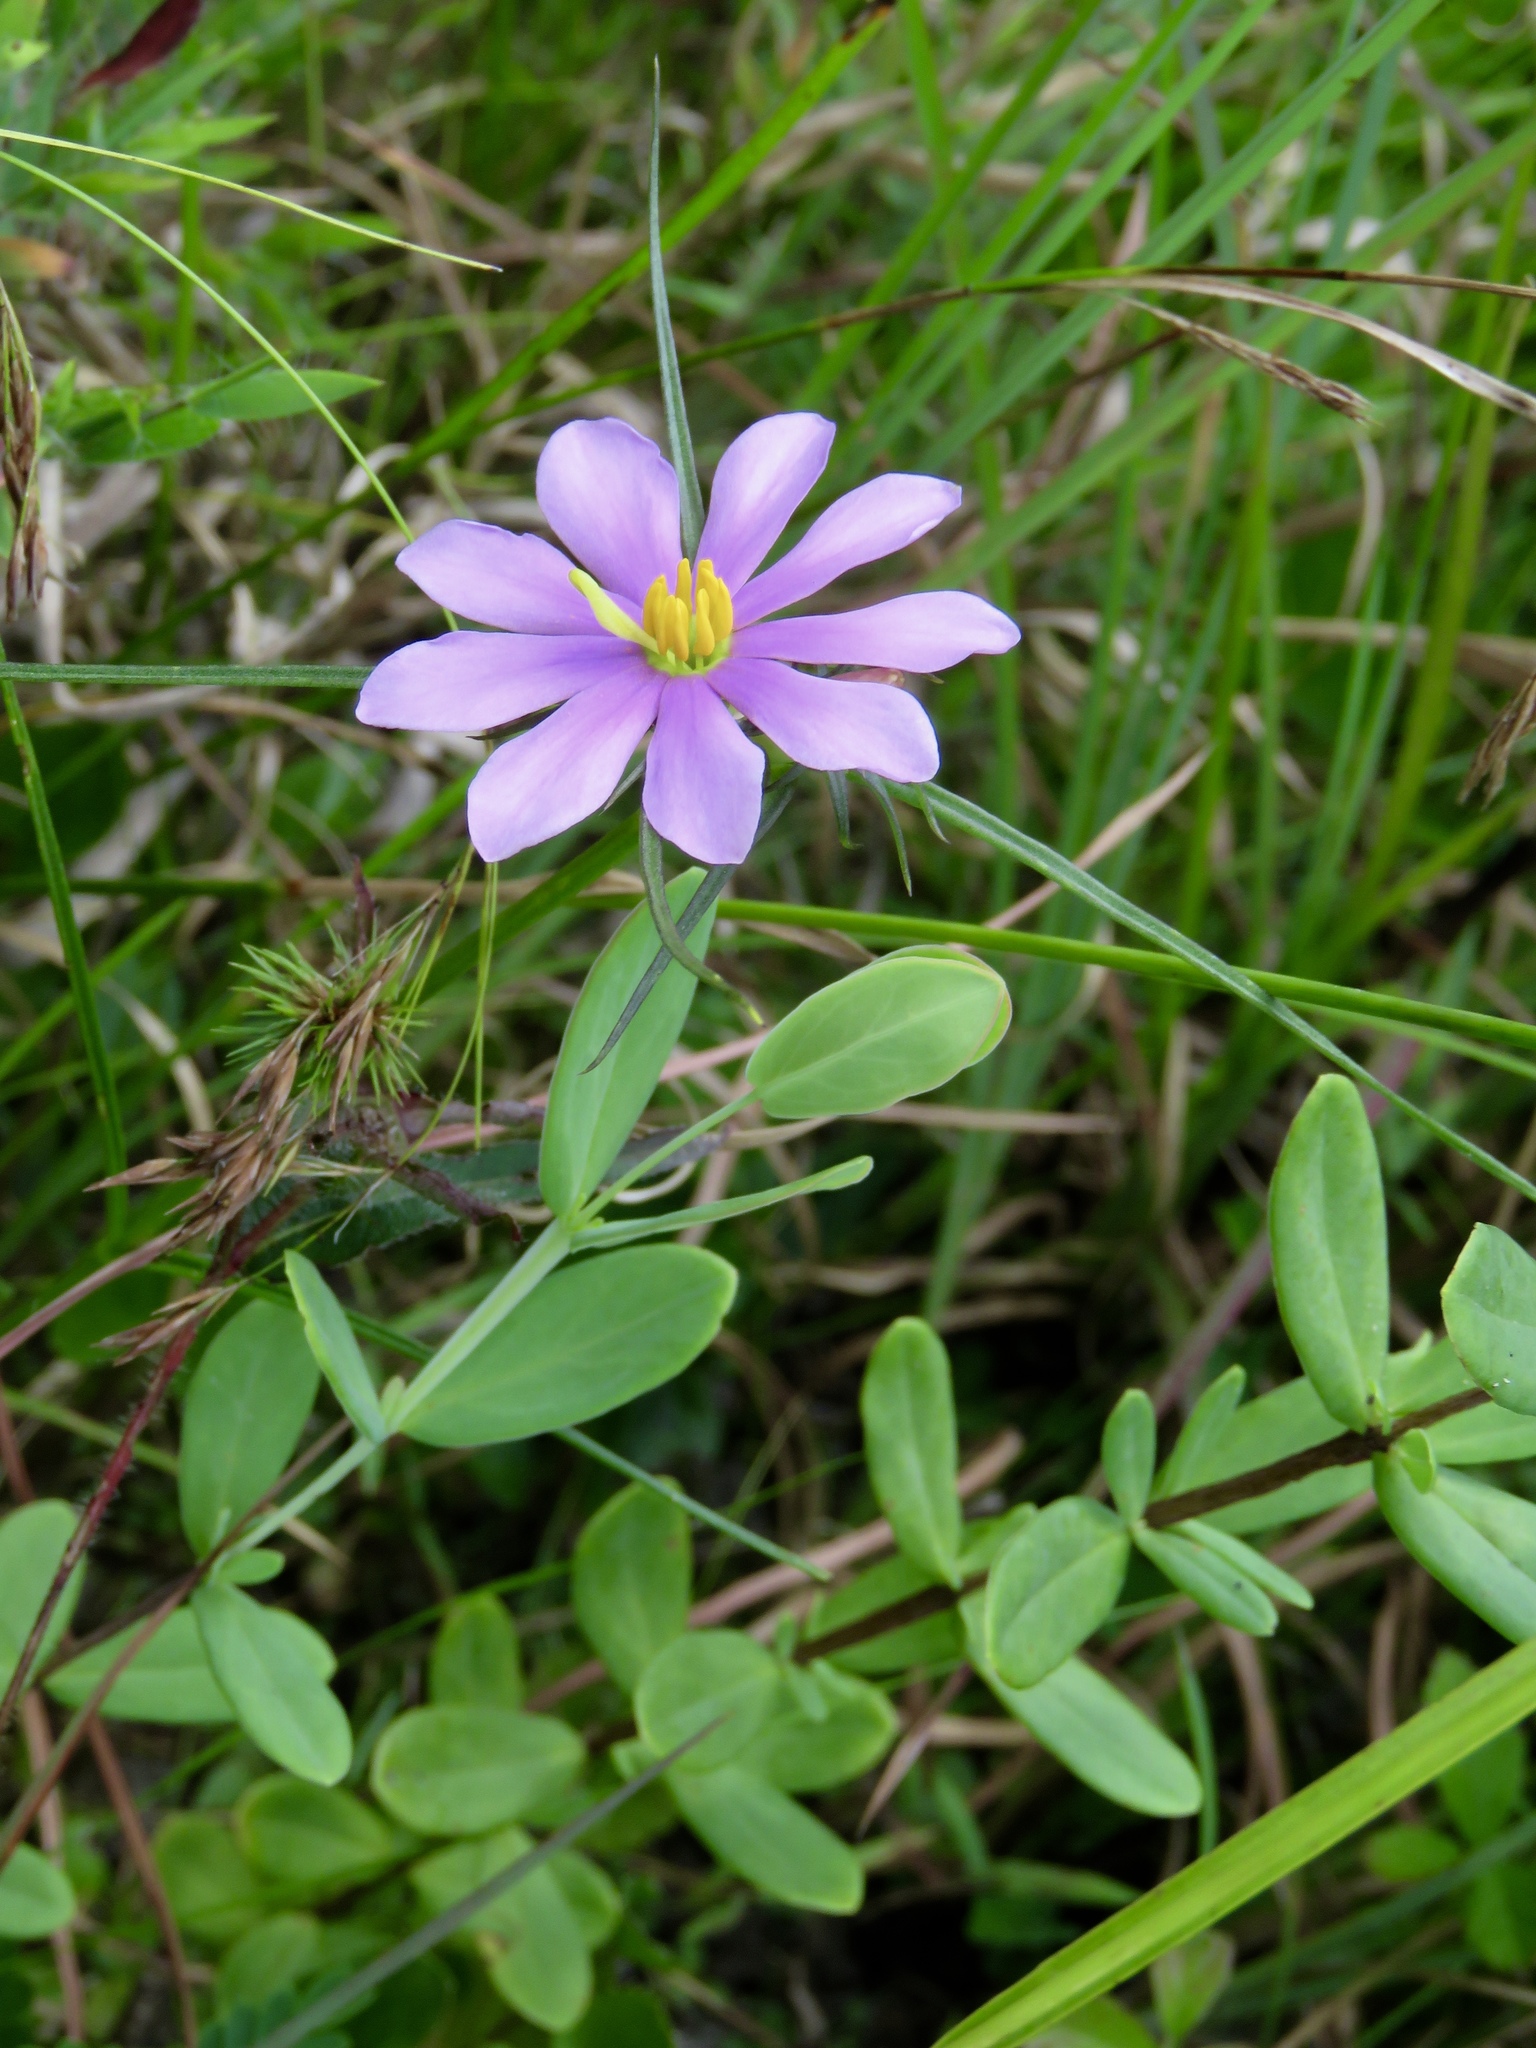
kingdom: Plantae
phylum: Tracheophyta
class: Magnoliopsida
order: Gentianales
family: Gentianaceae
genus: Sabatia
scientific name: Sabatia gentianoides
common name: Pinewoods rose-gentian
